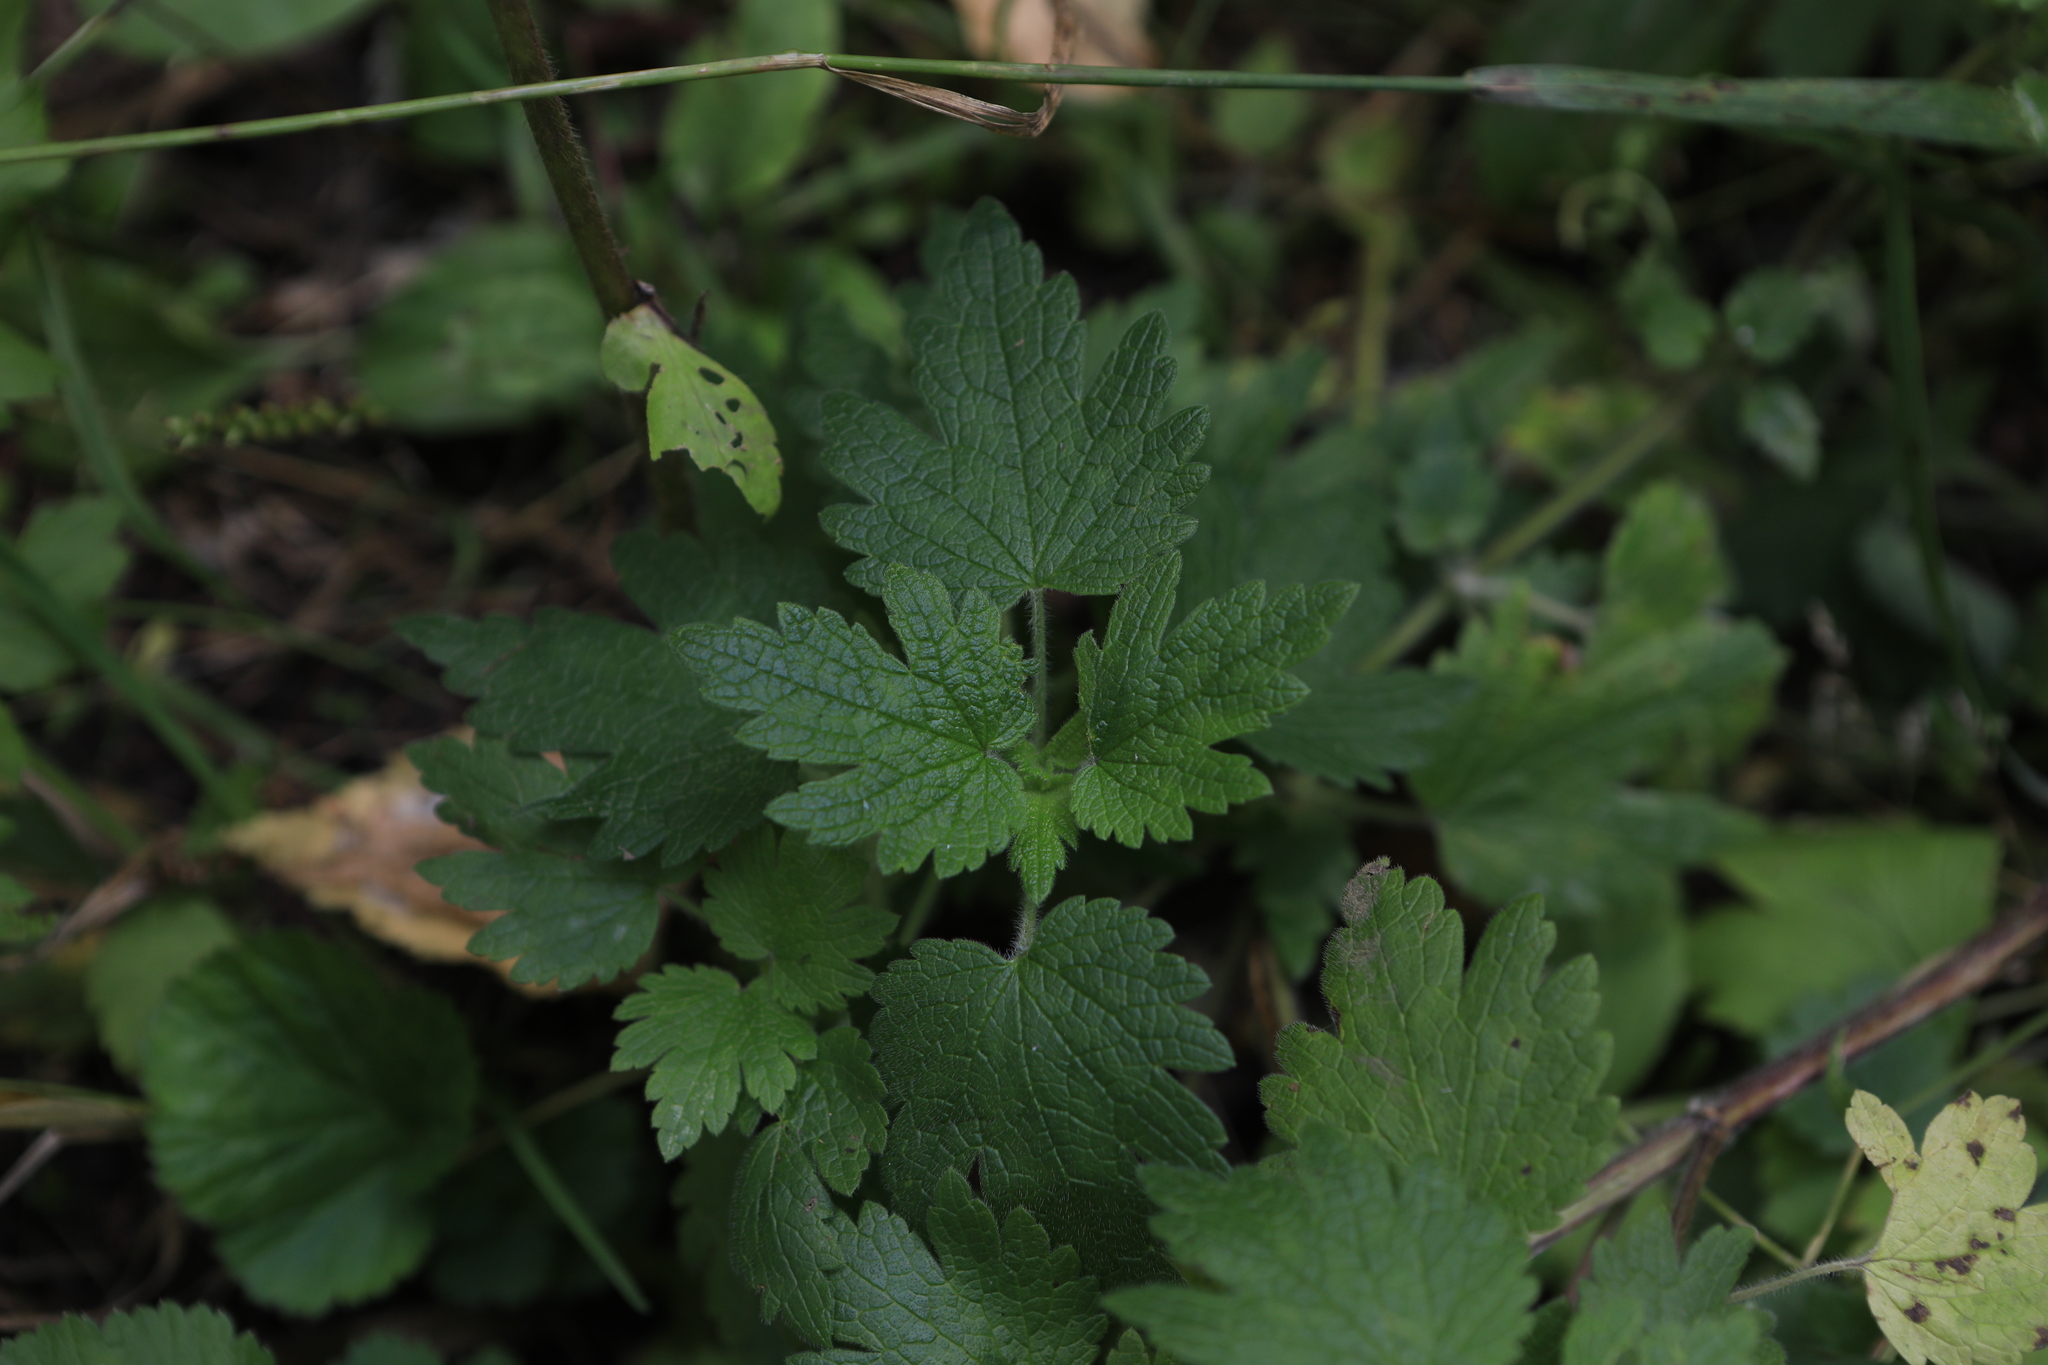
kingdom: Plantae
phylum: Tracheophyta
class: Magnoliopsida
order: Lamiales
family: Lamiaceae
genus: Leonurus
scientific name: Leonurus quinquelobatus
